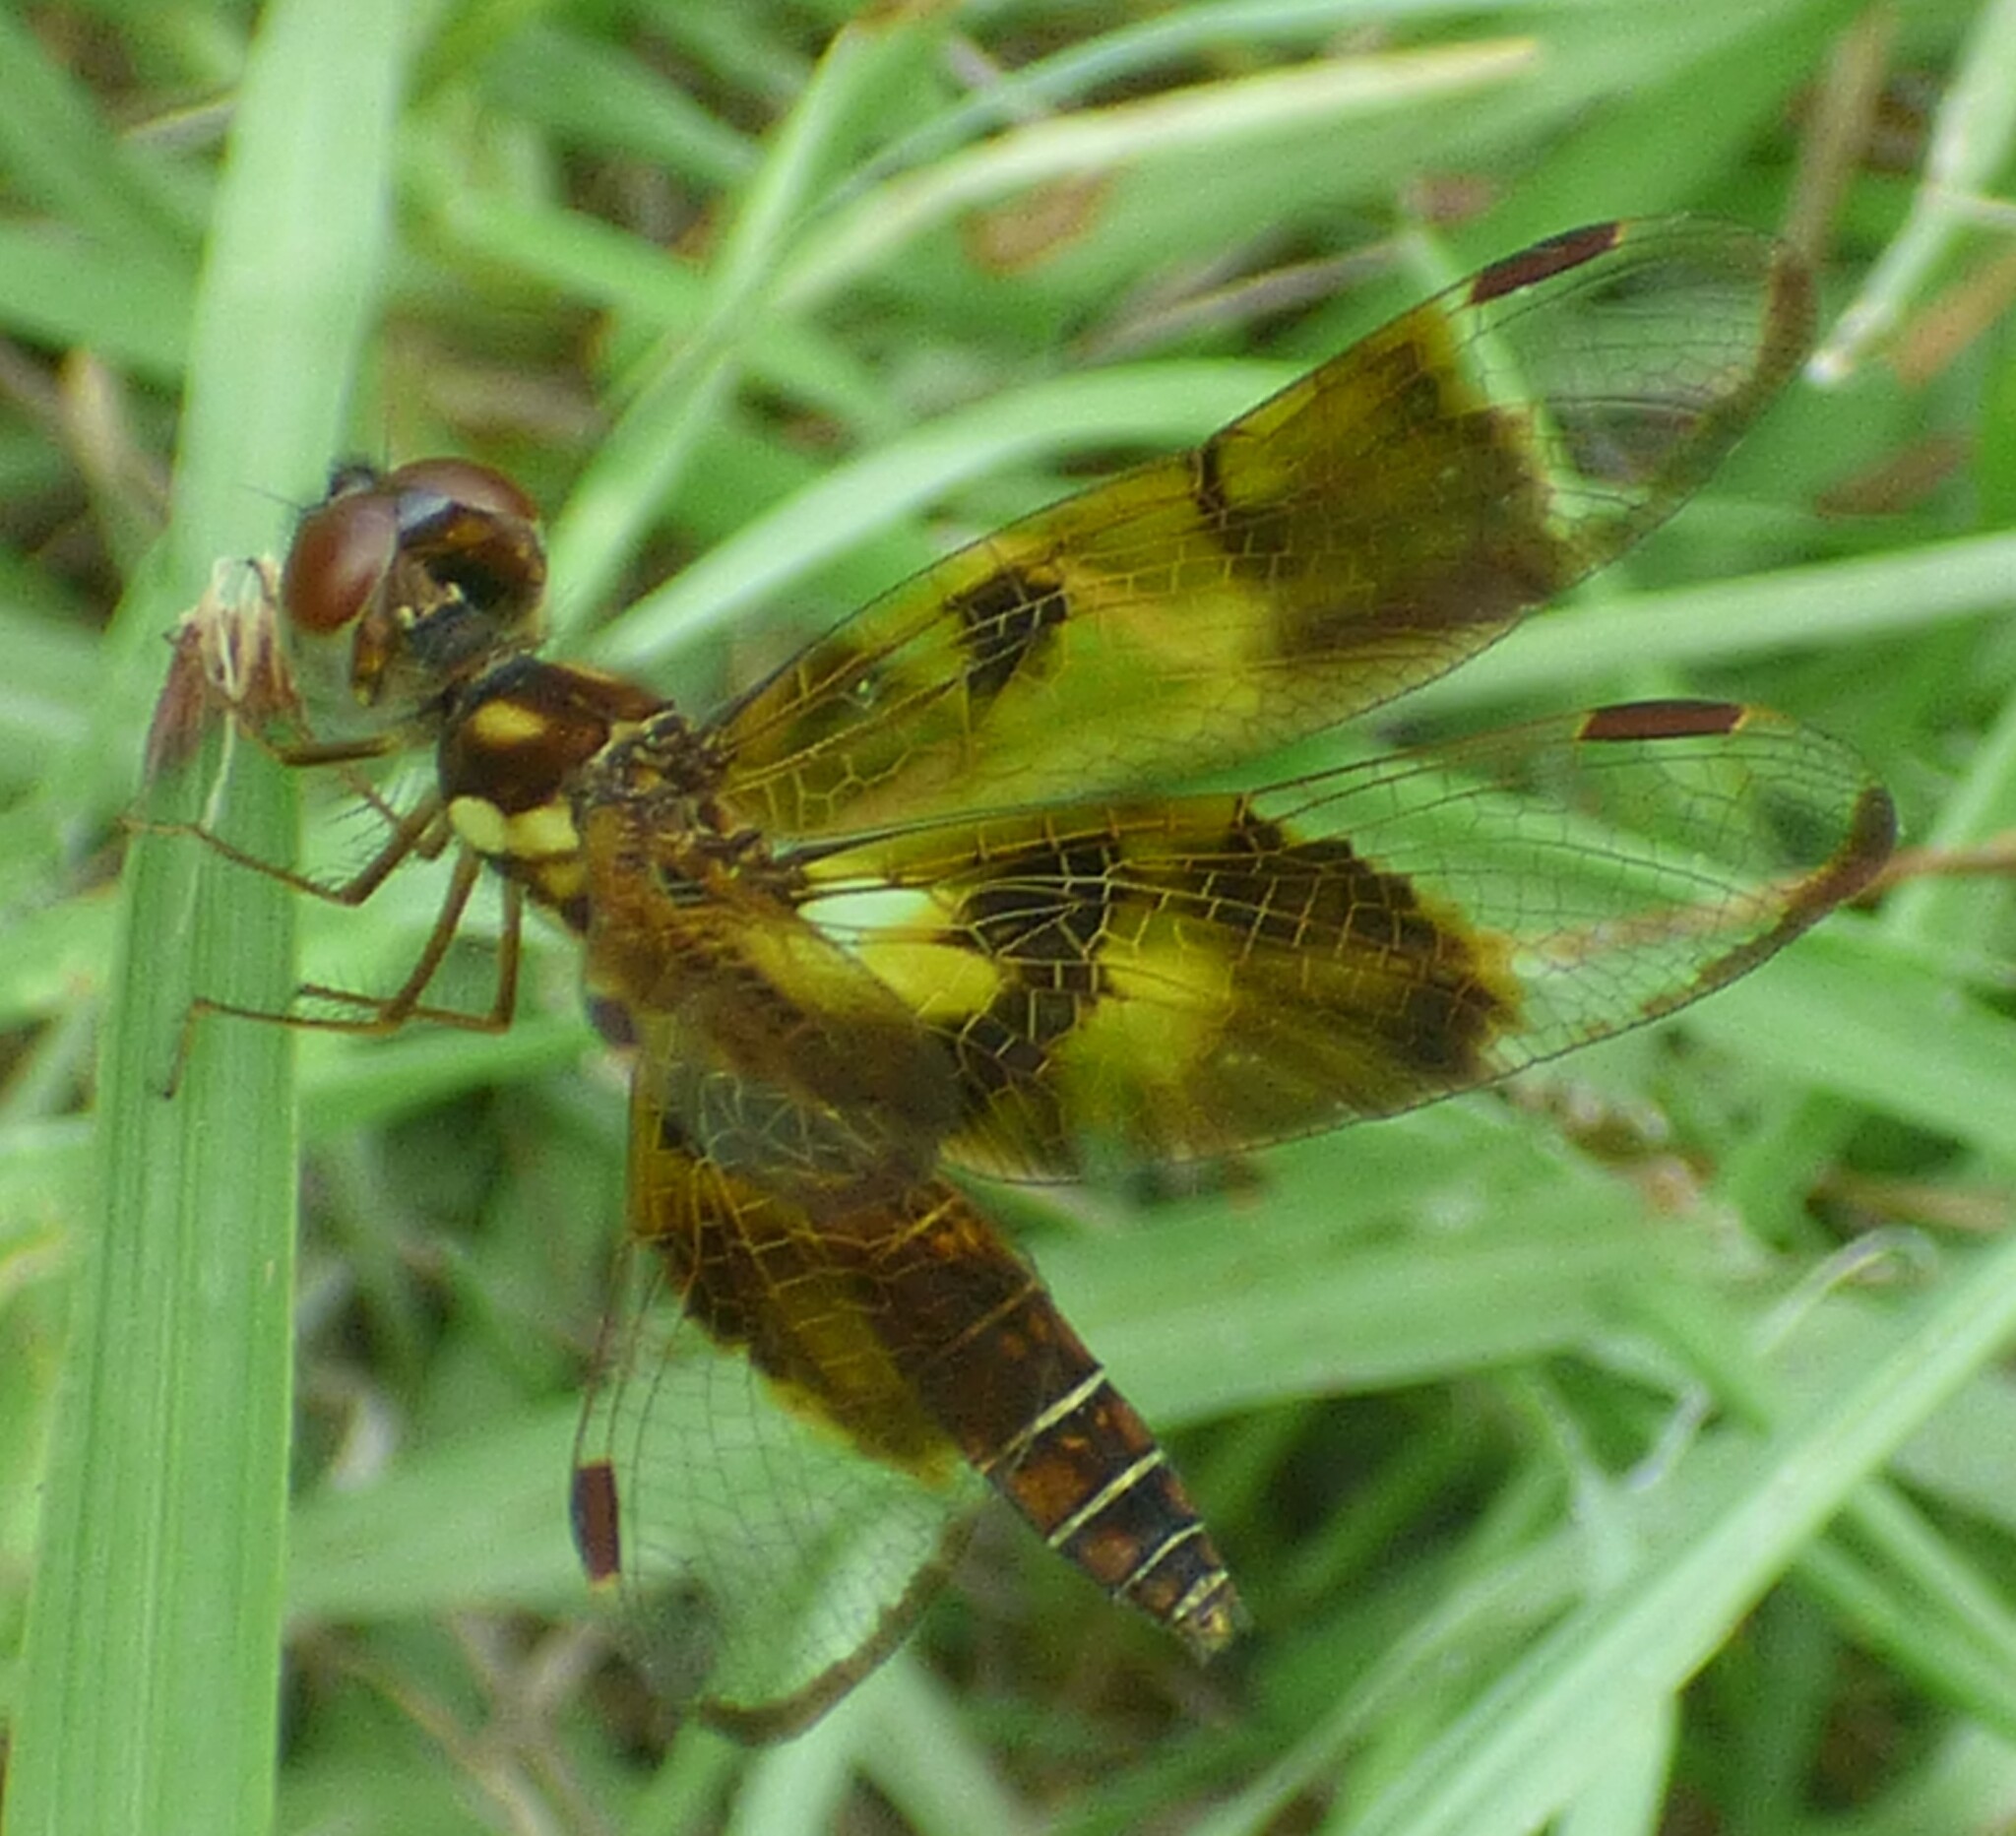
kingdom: Animalia
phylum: Arthropoda
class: Insecta
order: Odonata
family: Libellulidae
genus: Perithemis
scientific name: Perithemis tenera
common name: Eastern amberwing
